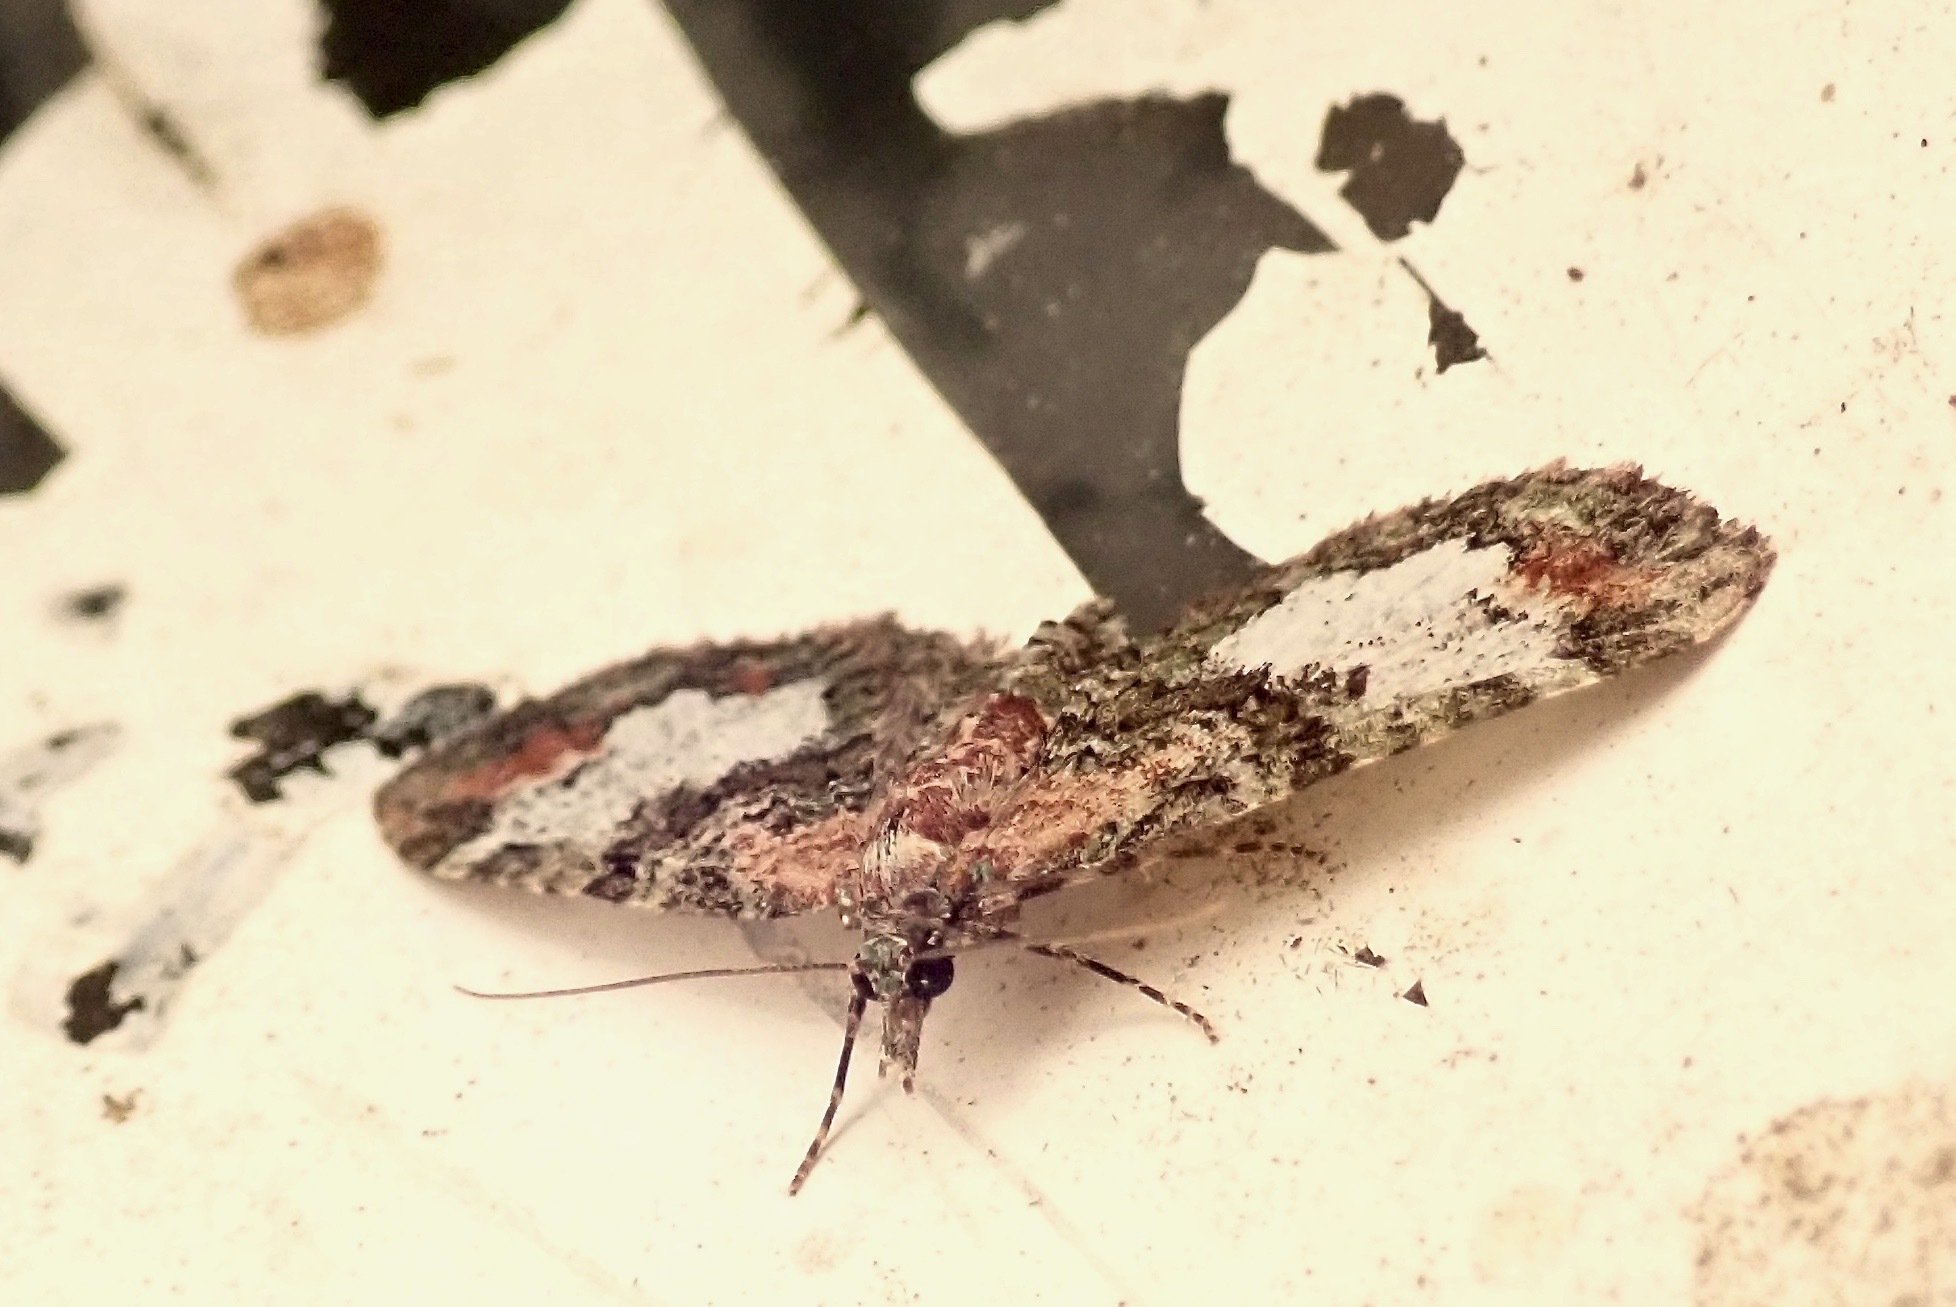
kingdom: Animalia
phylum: Arthropoda
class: Insecta
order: Lepidoptera
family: Geometridae
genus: Idaea
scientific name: Idaea mutanda
